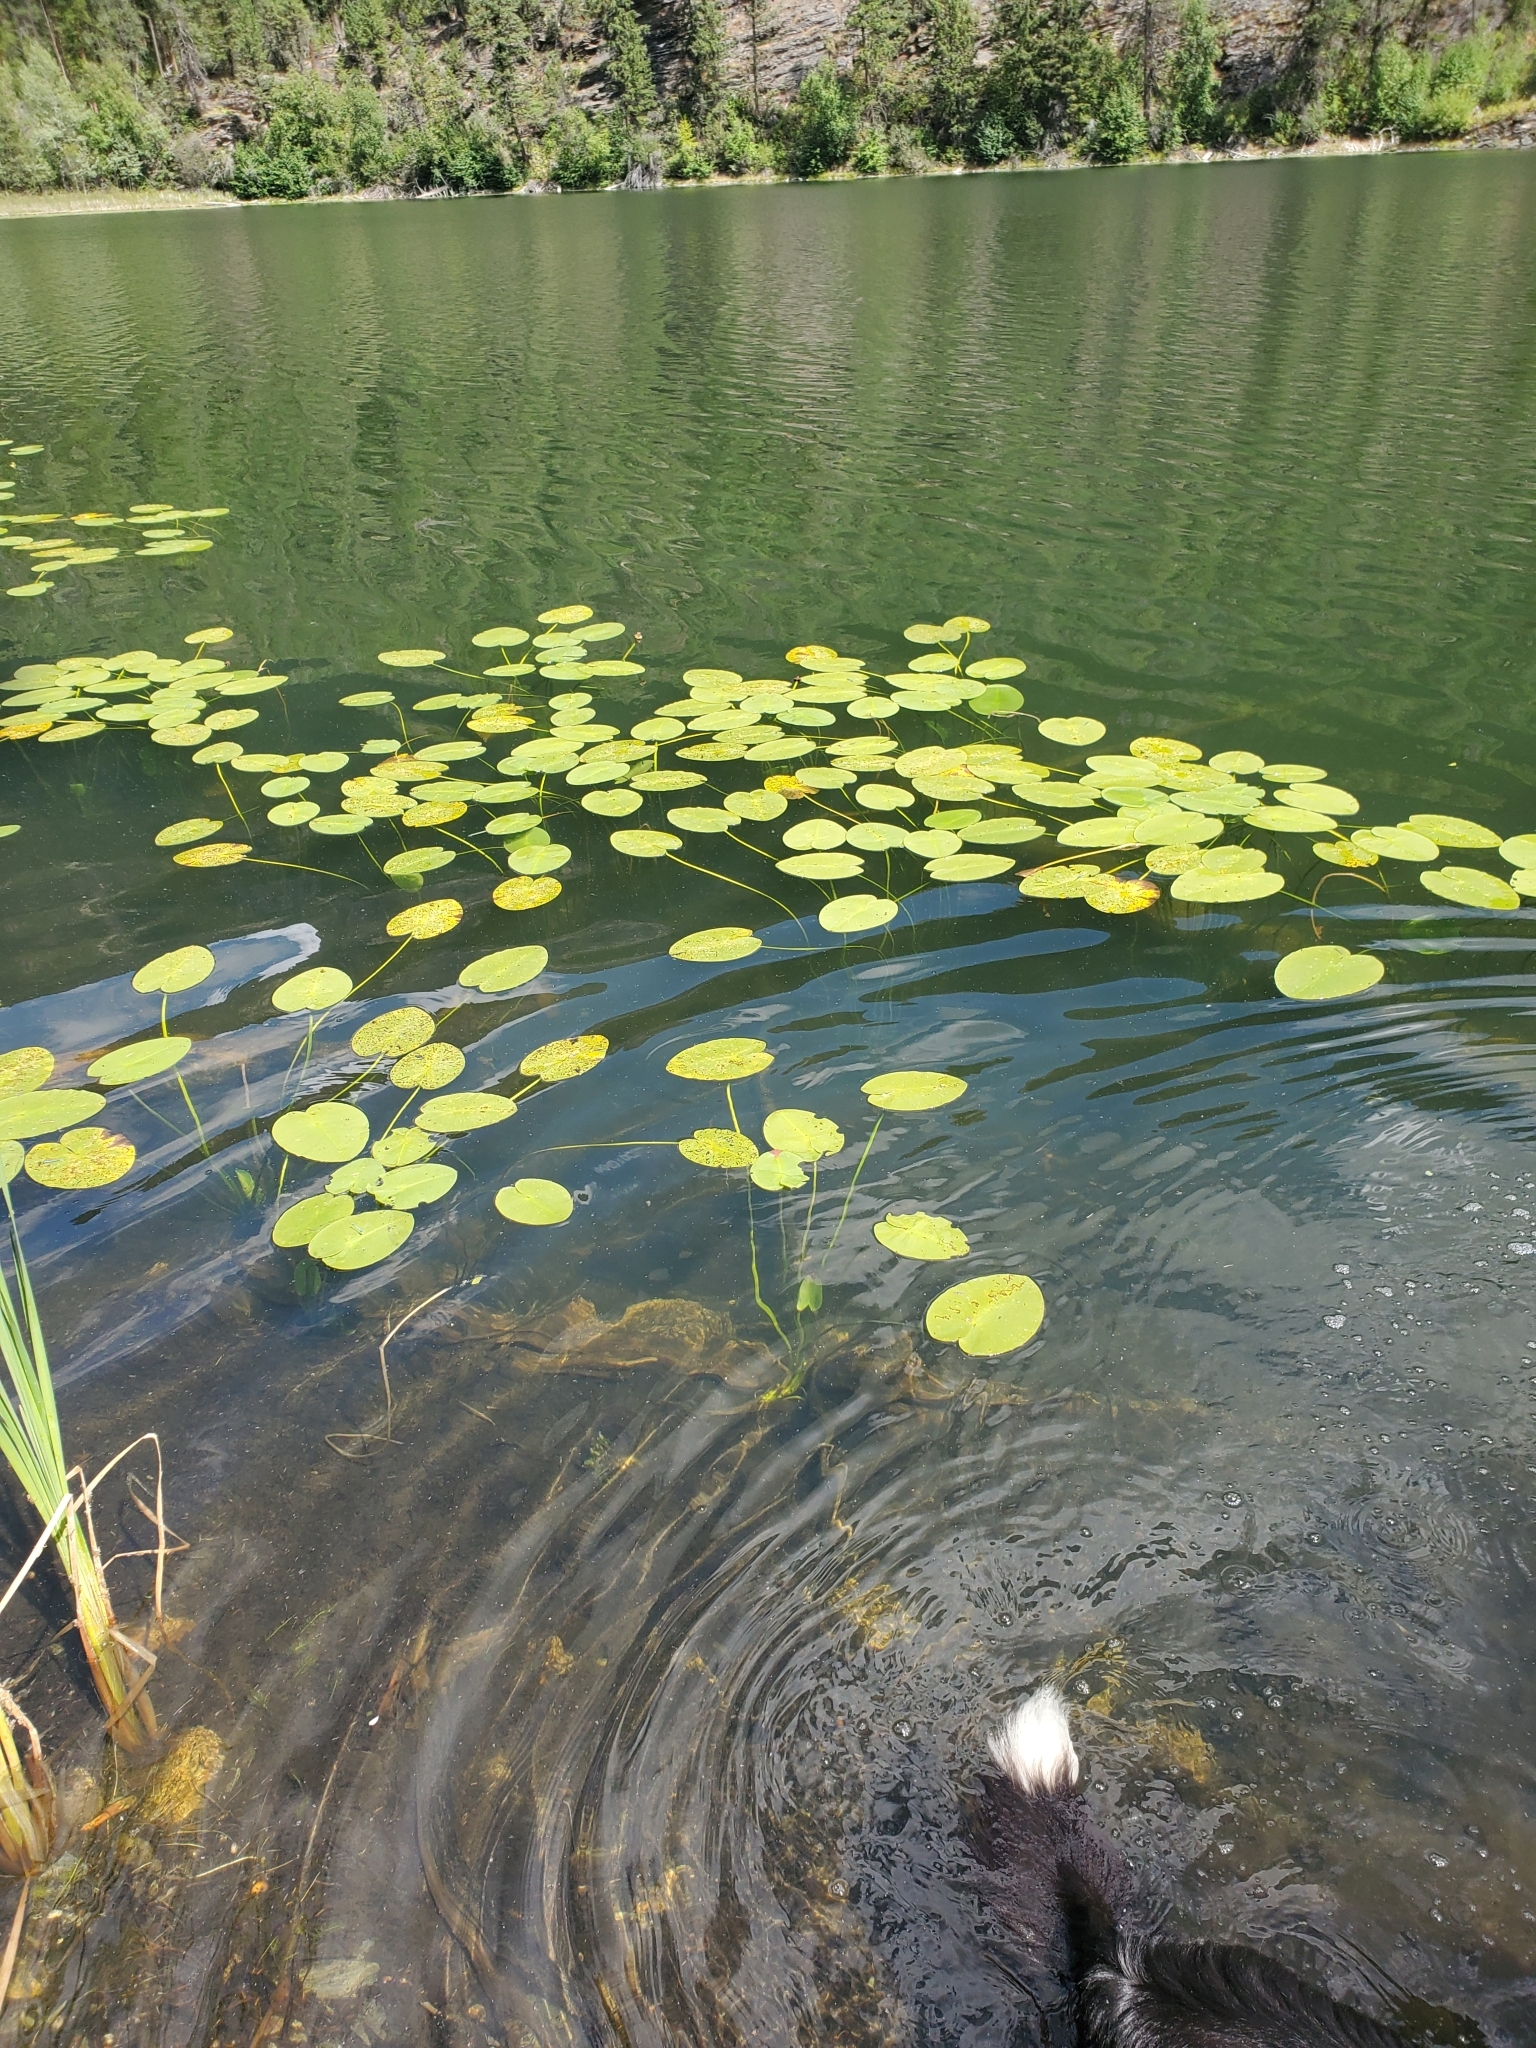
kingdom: Plantae
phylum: Tracheophyta
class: Magnoliopsida
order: Nymphaeales
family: Nymphaeaceae
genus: Nuphar
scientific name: Nuphar variegata
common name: Beaver-root
